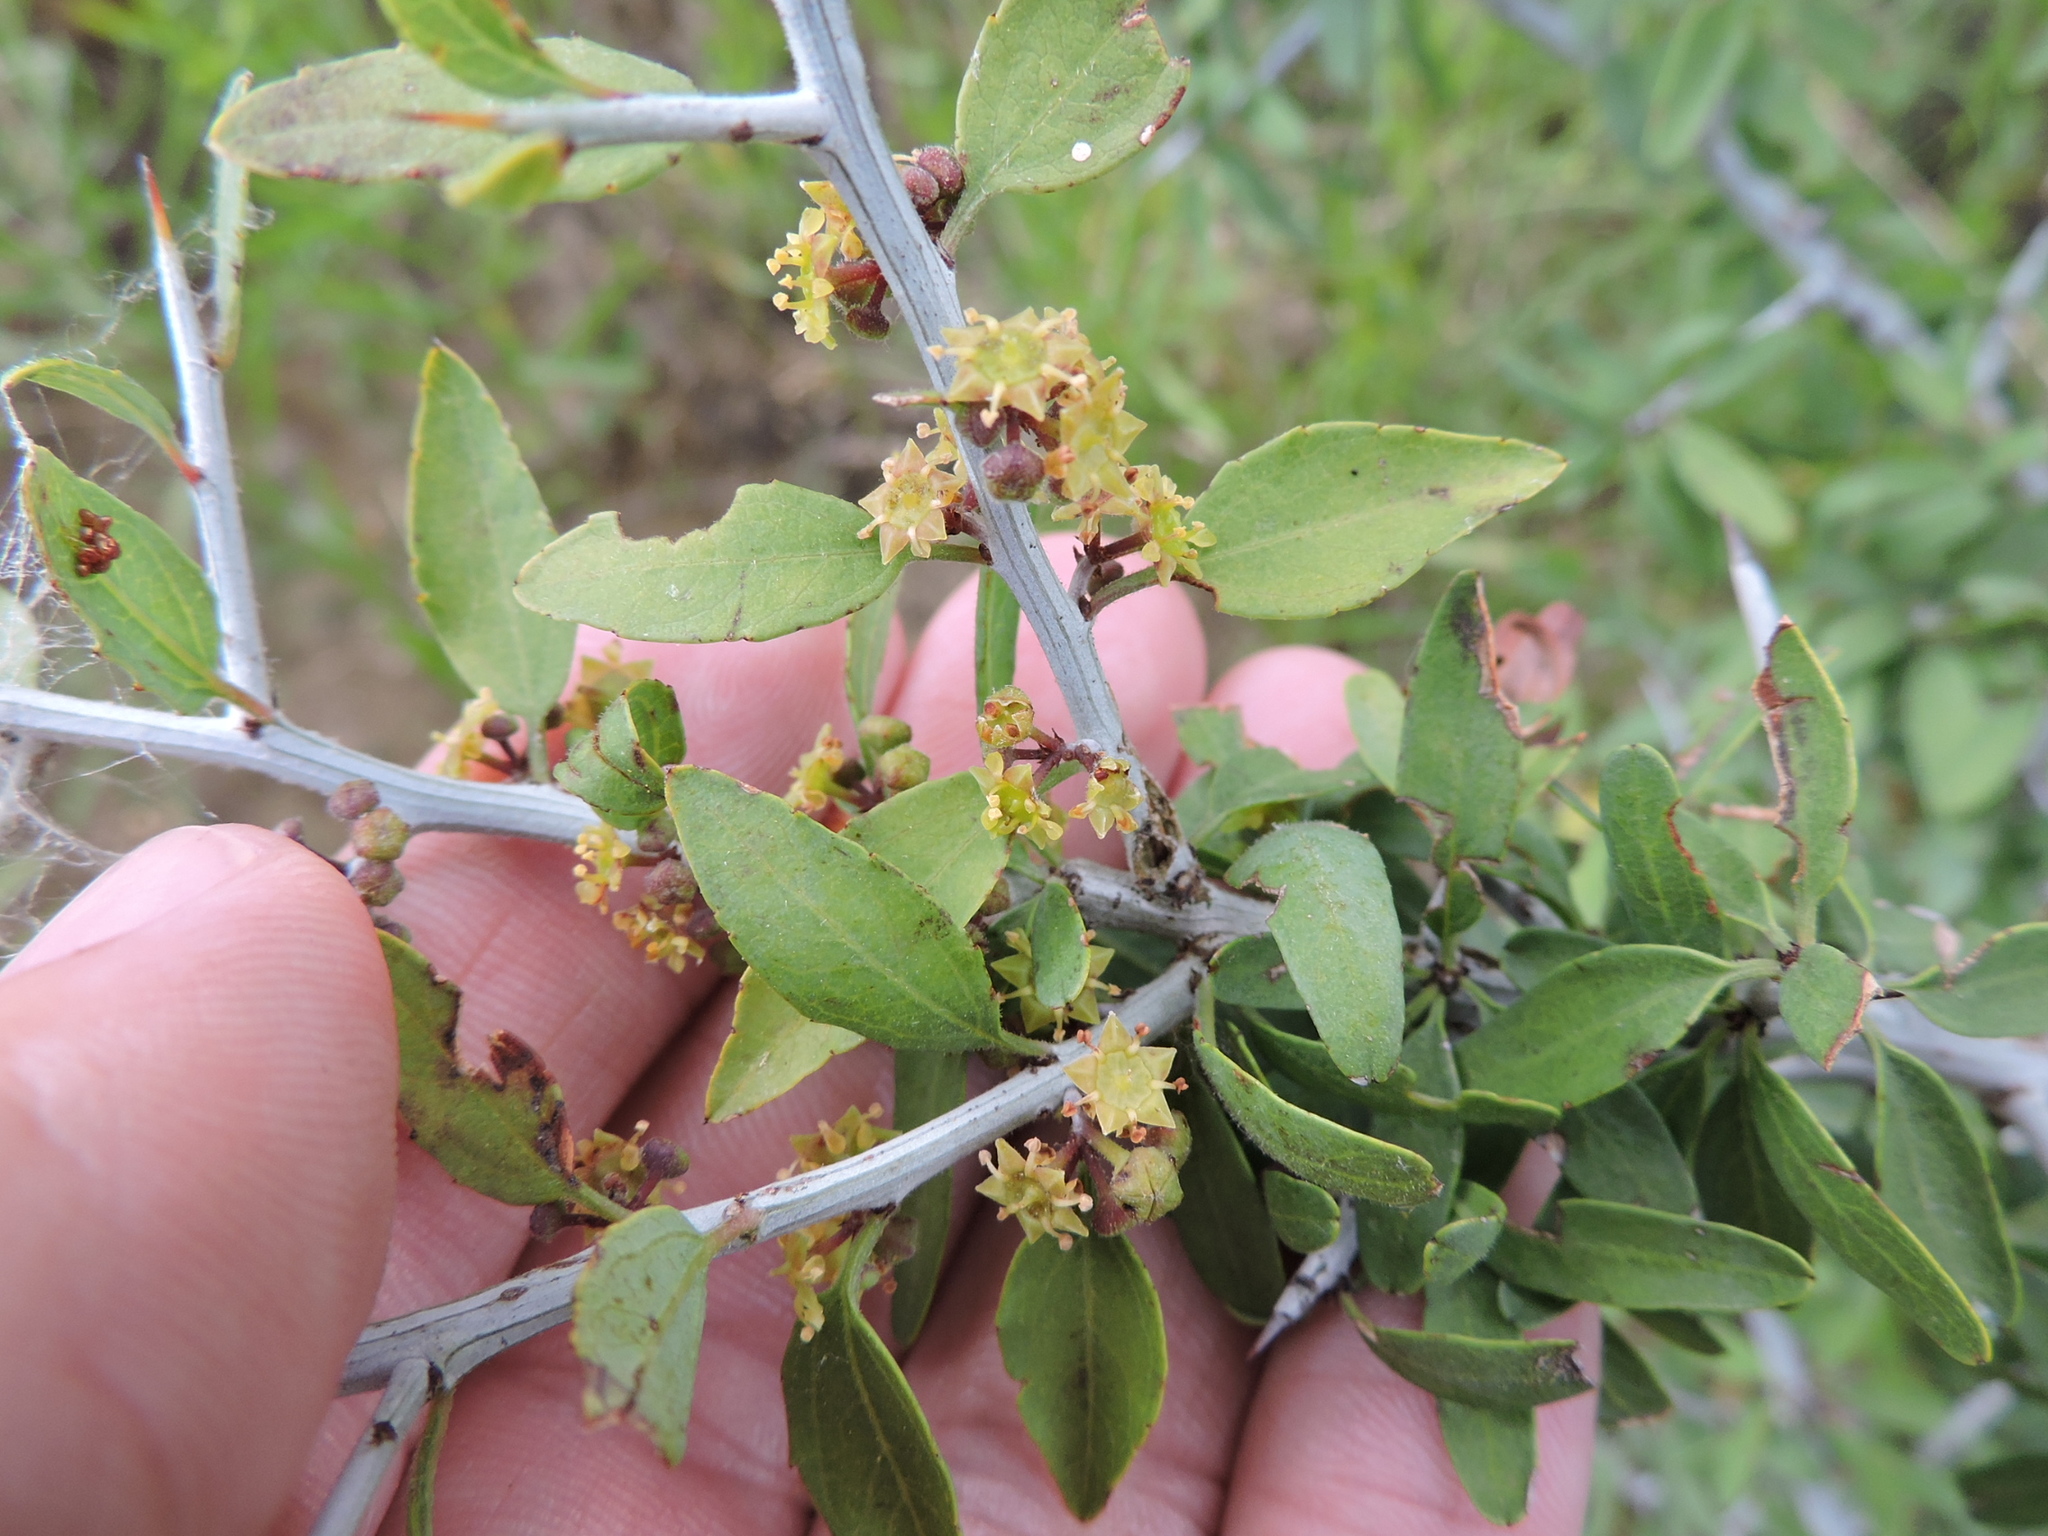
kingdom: Plantae
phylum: Tracheophyta
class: Magnoliopsida
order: Rosales
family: Rhamnaceae
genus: Sarcomphalus
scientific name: Sarcomphalus obtusifolius
